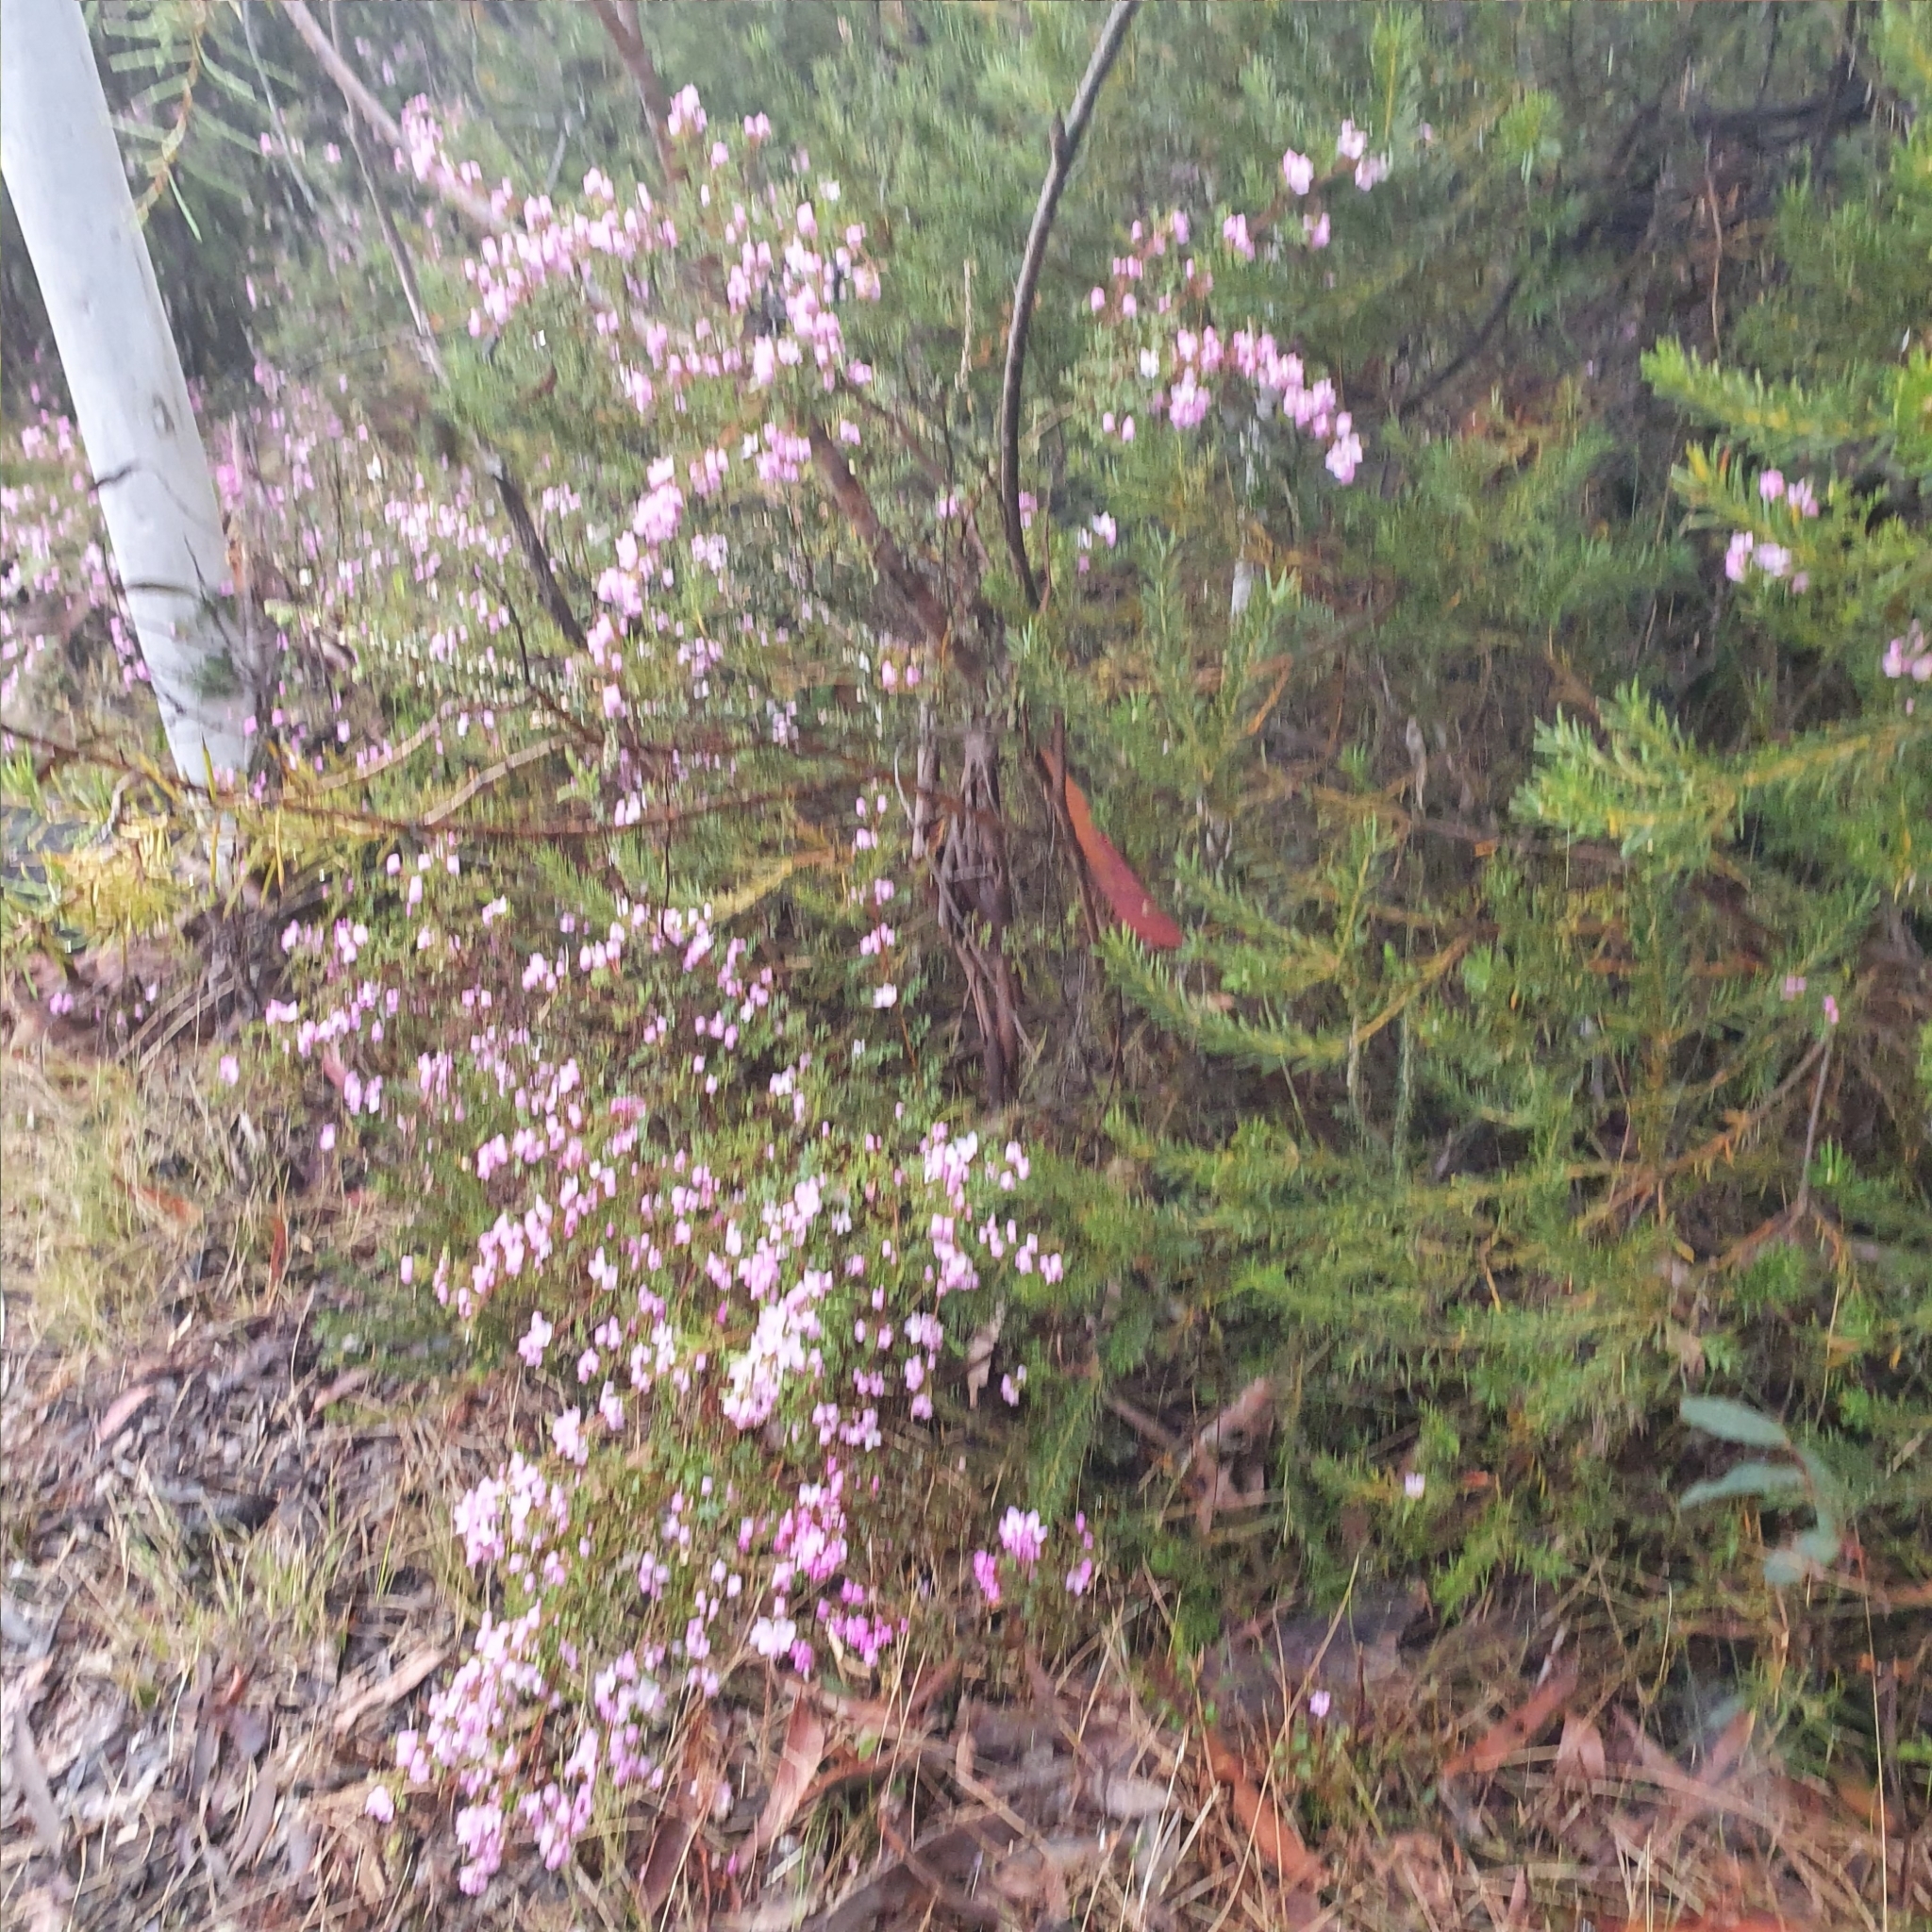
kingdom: Plantae
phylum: Tracheophyta
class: Magnoliopsida
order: Sapindales
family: Rutaceae
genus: Boronia
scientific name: Boronia microphylla
